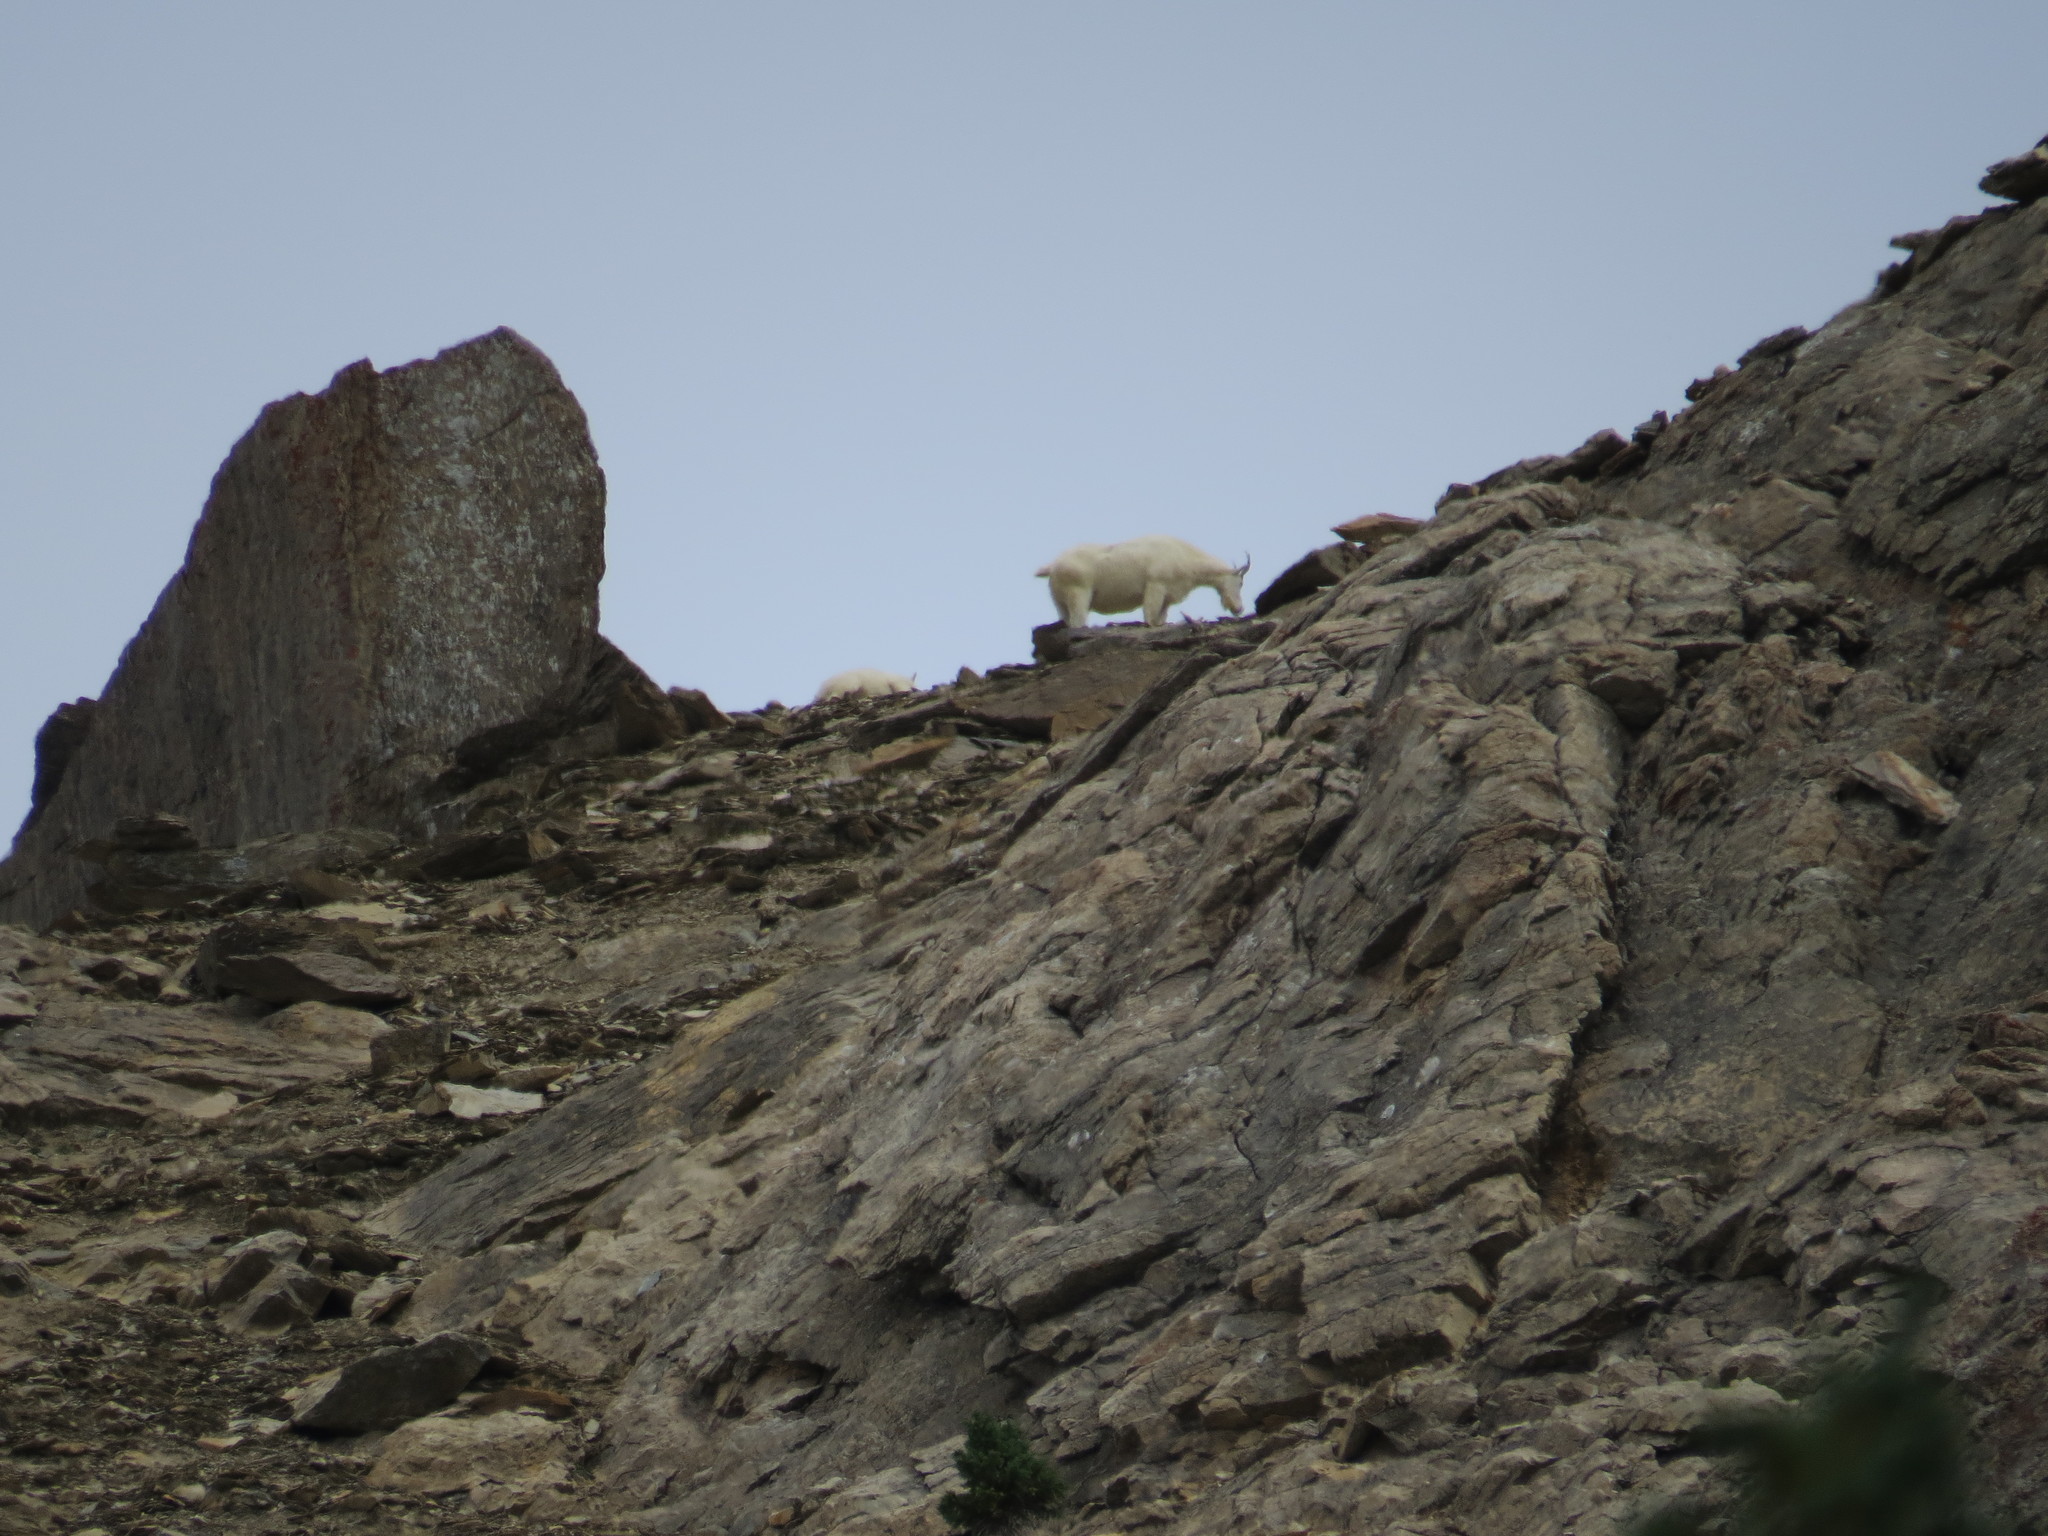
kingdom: Animalia
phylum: Chordata
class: Mammalia
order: Artiodactyla
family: Bovidae
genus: Oreamnos
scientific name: Oreamnos americanus
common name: Mountain goat
